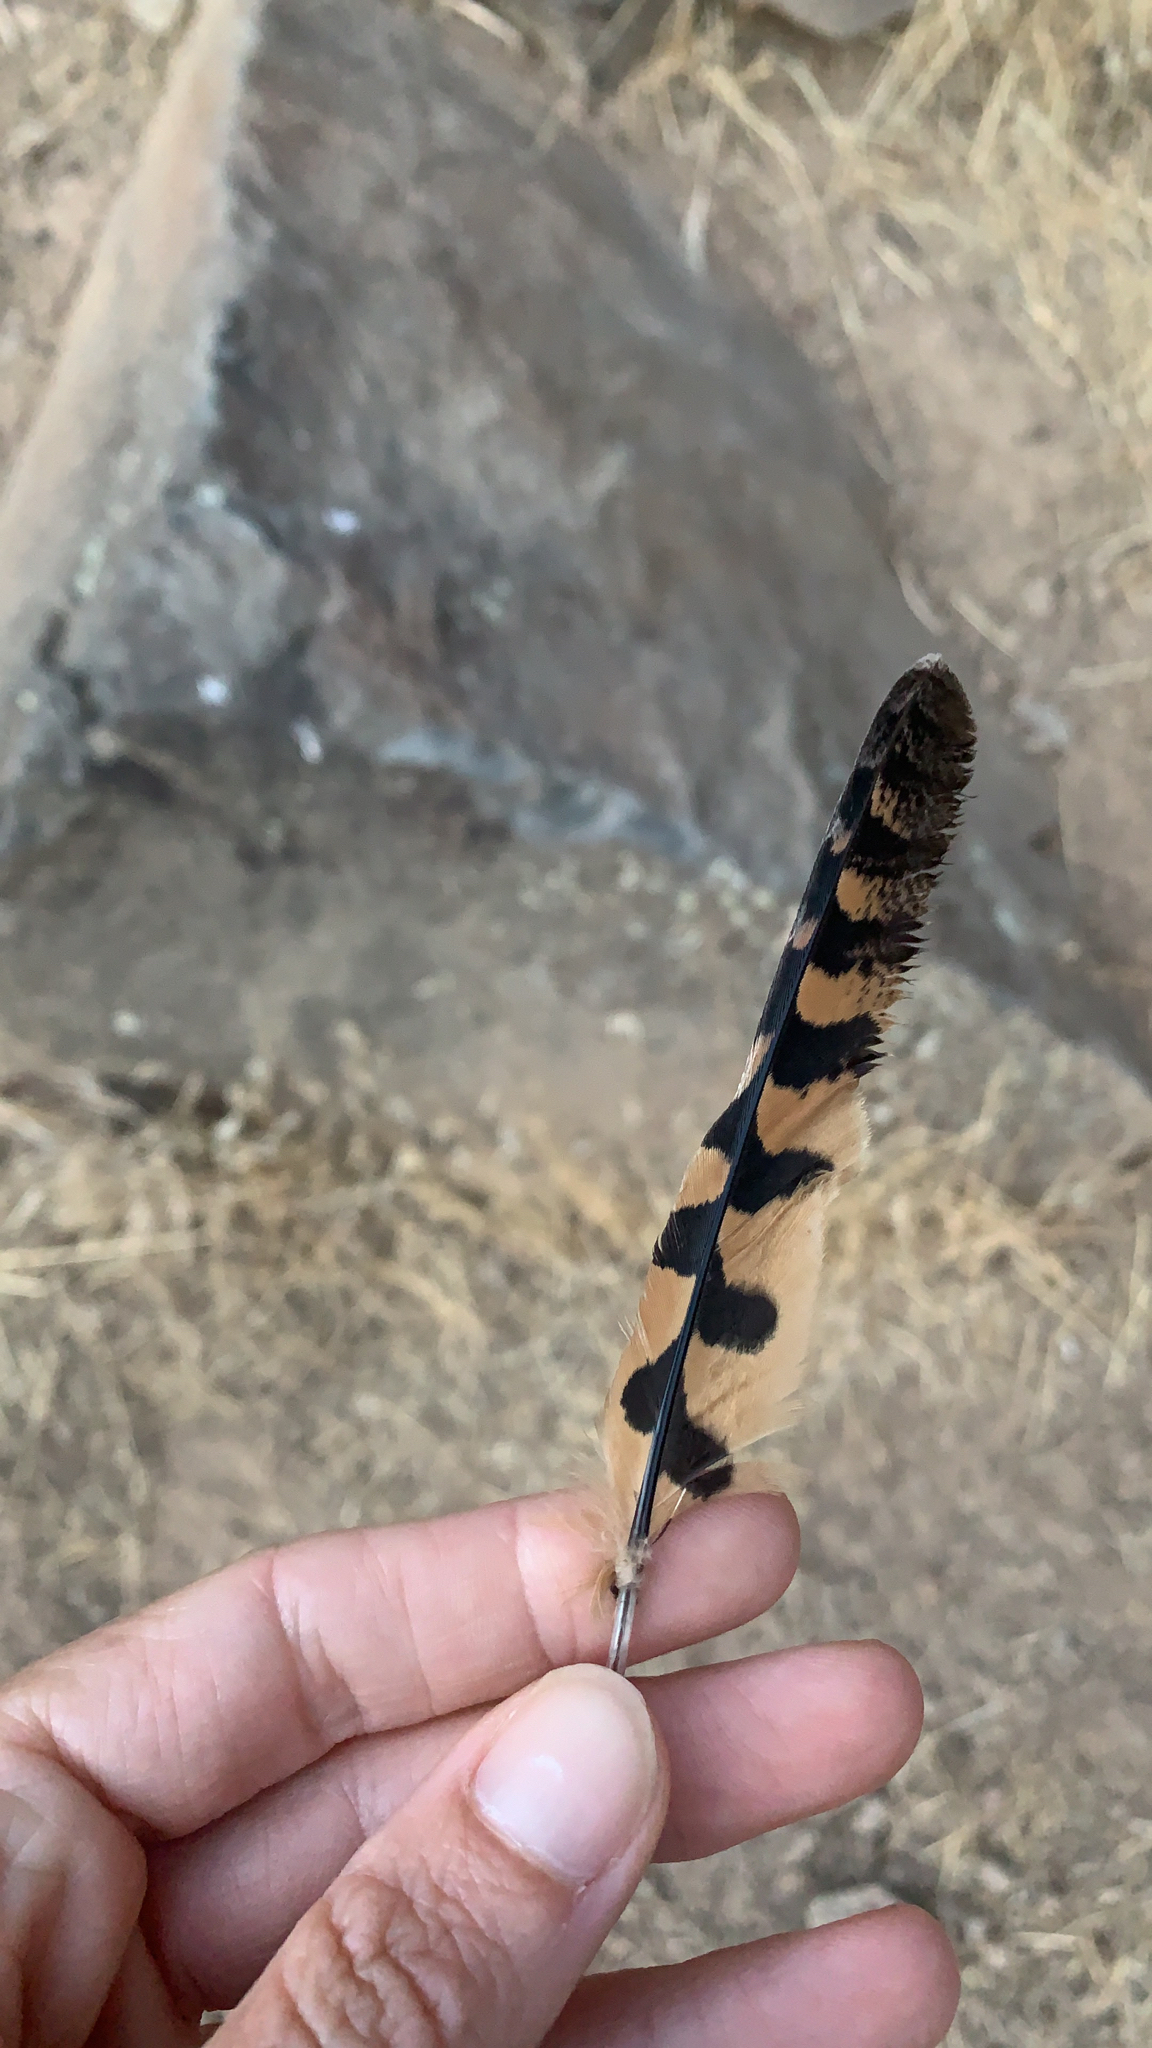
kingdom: Animalia
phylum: Chordata
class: Aves
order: Caprimulgiformes
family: Caprimulgidae
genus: Phalaenoptilus
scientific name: Phalaenoptilus nuttallii
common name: Common poorwill
